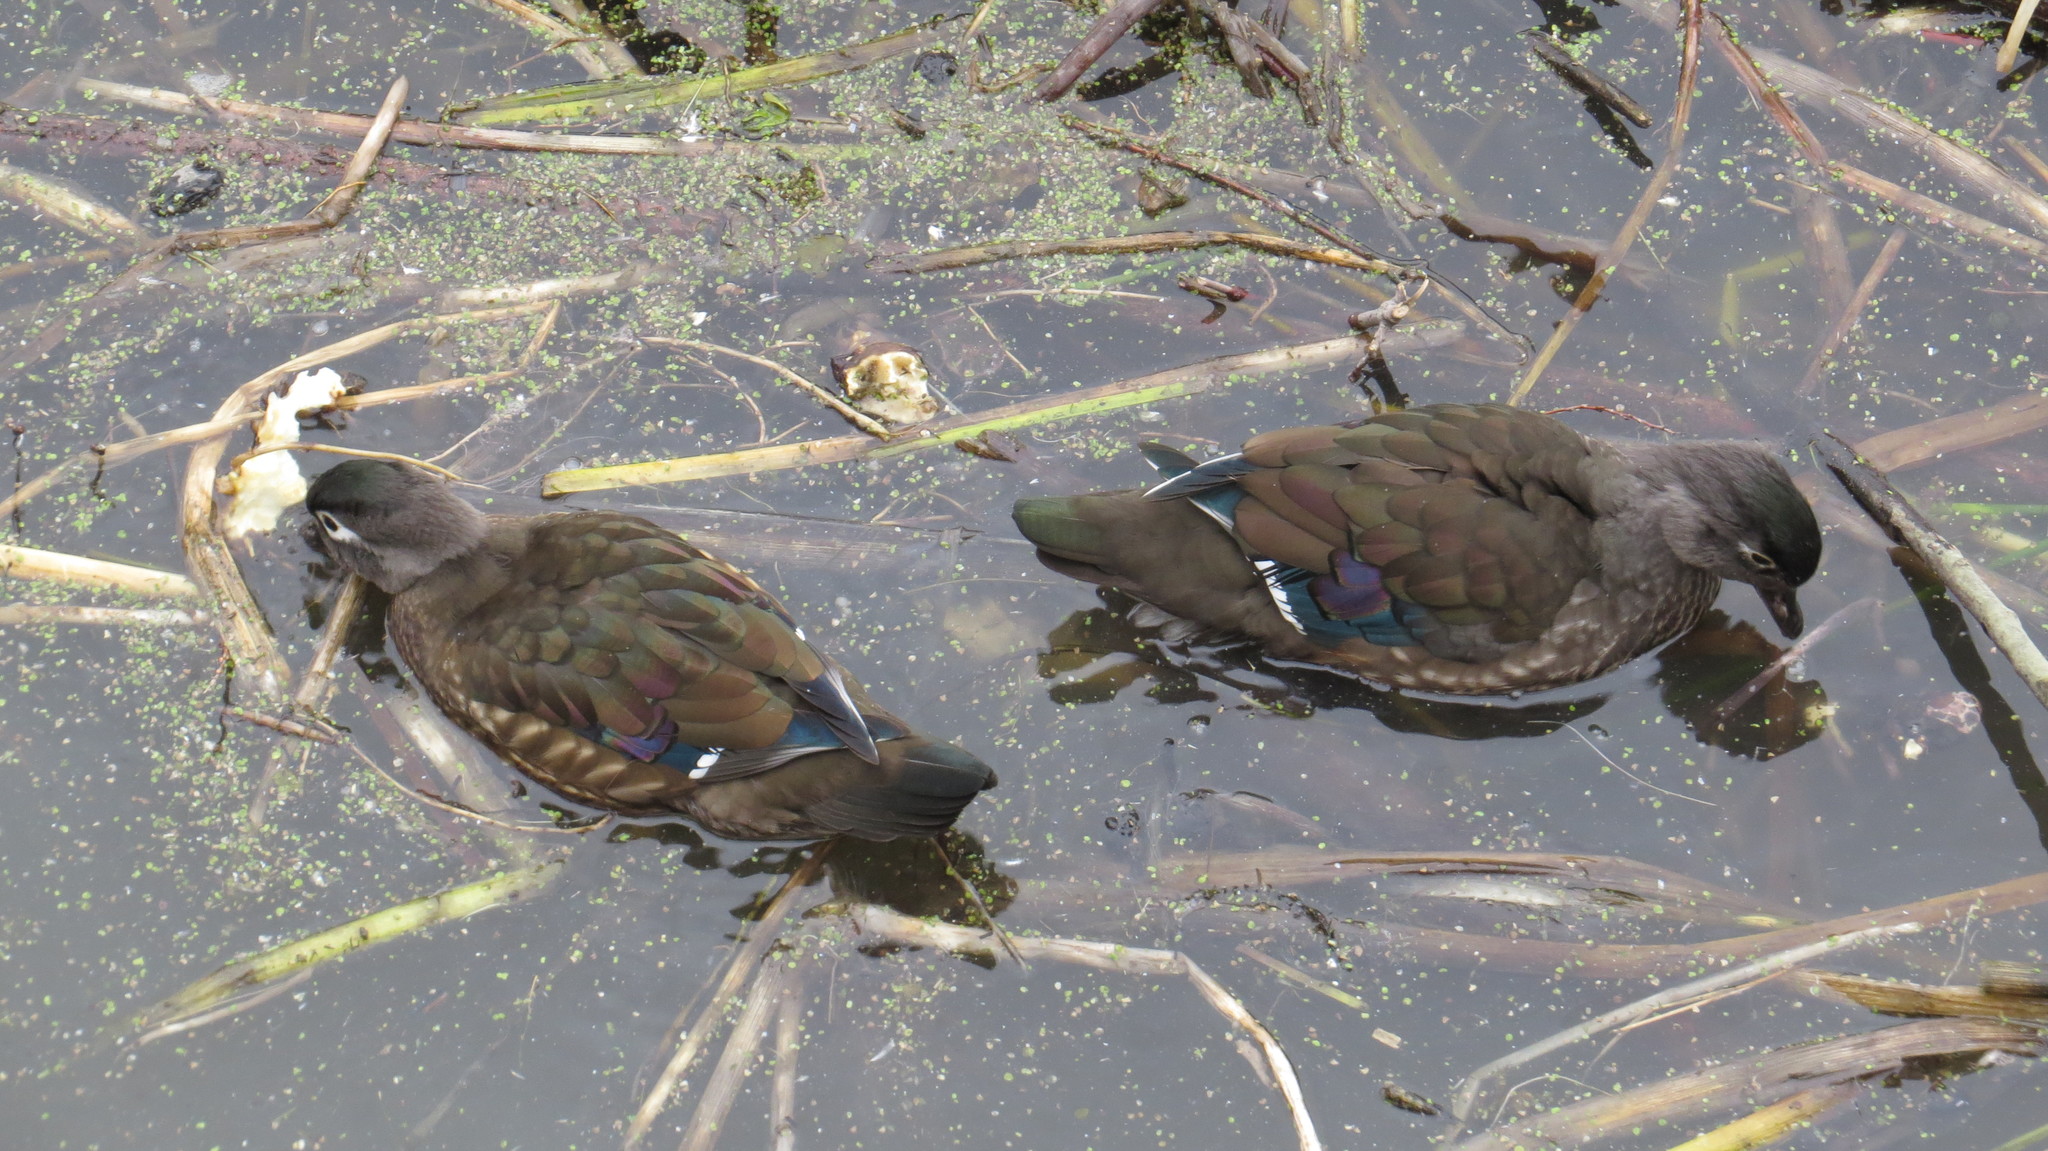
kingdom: Animalia
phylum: Chordata
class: Aves
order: Anseriformes
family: Anatidae
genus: Aix
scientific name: Aix sponsa
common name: Wood duck
